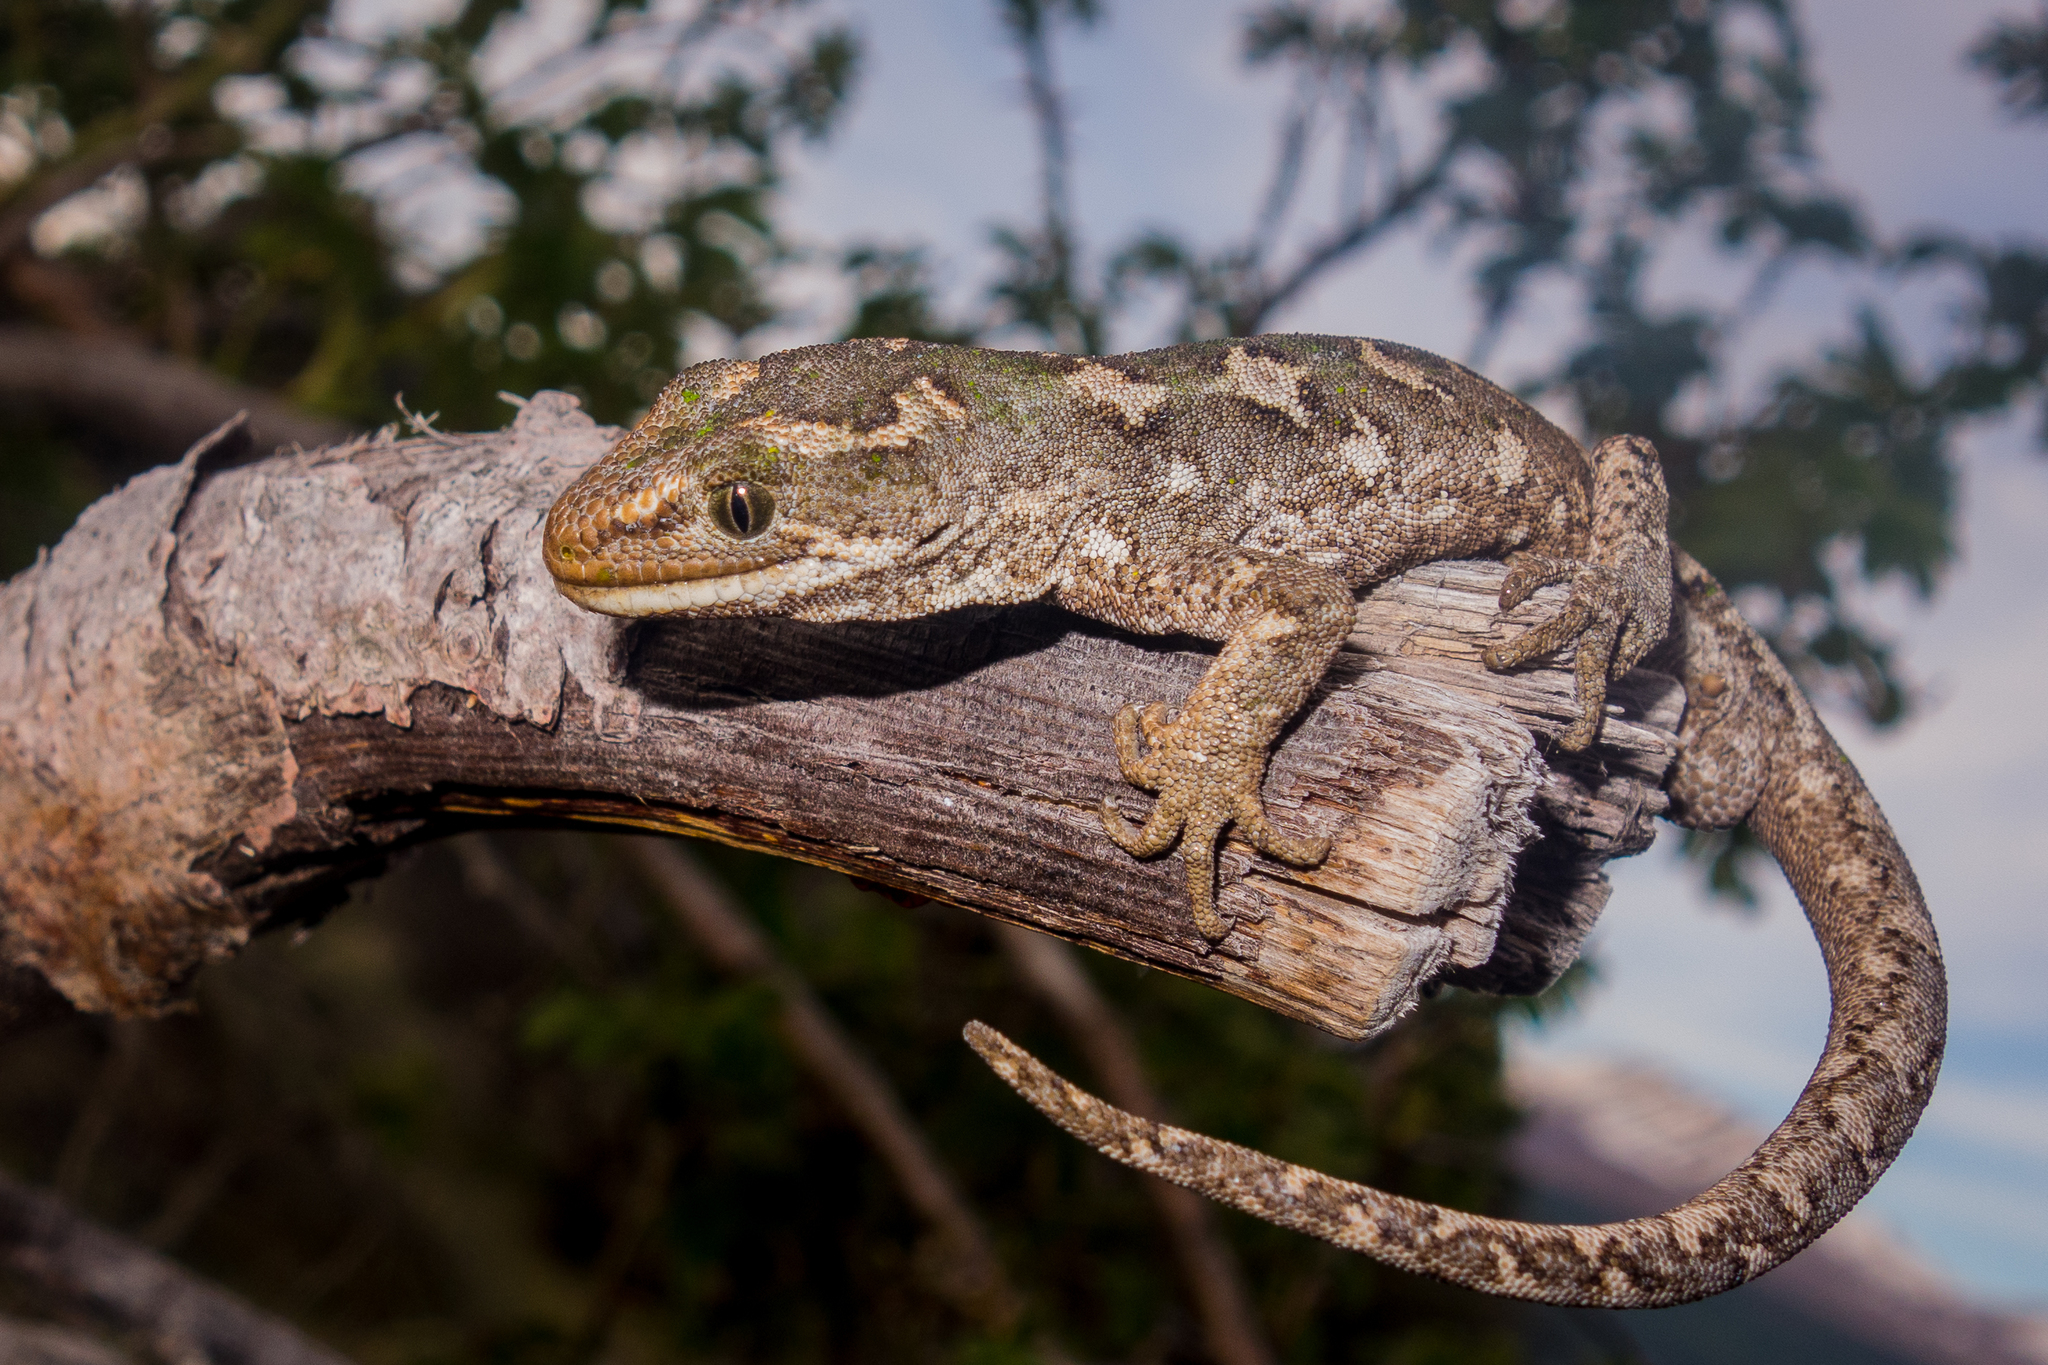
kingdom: Animalia
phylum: Chordata
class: Squamata
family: Diplodactylidae
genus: Naultinus
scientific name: Naultinus gemmeus
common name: Jewelled gecko
